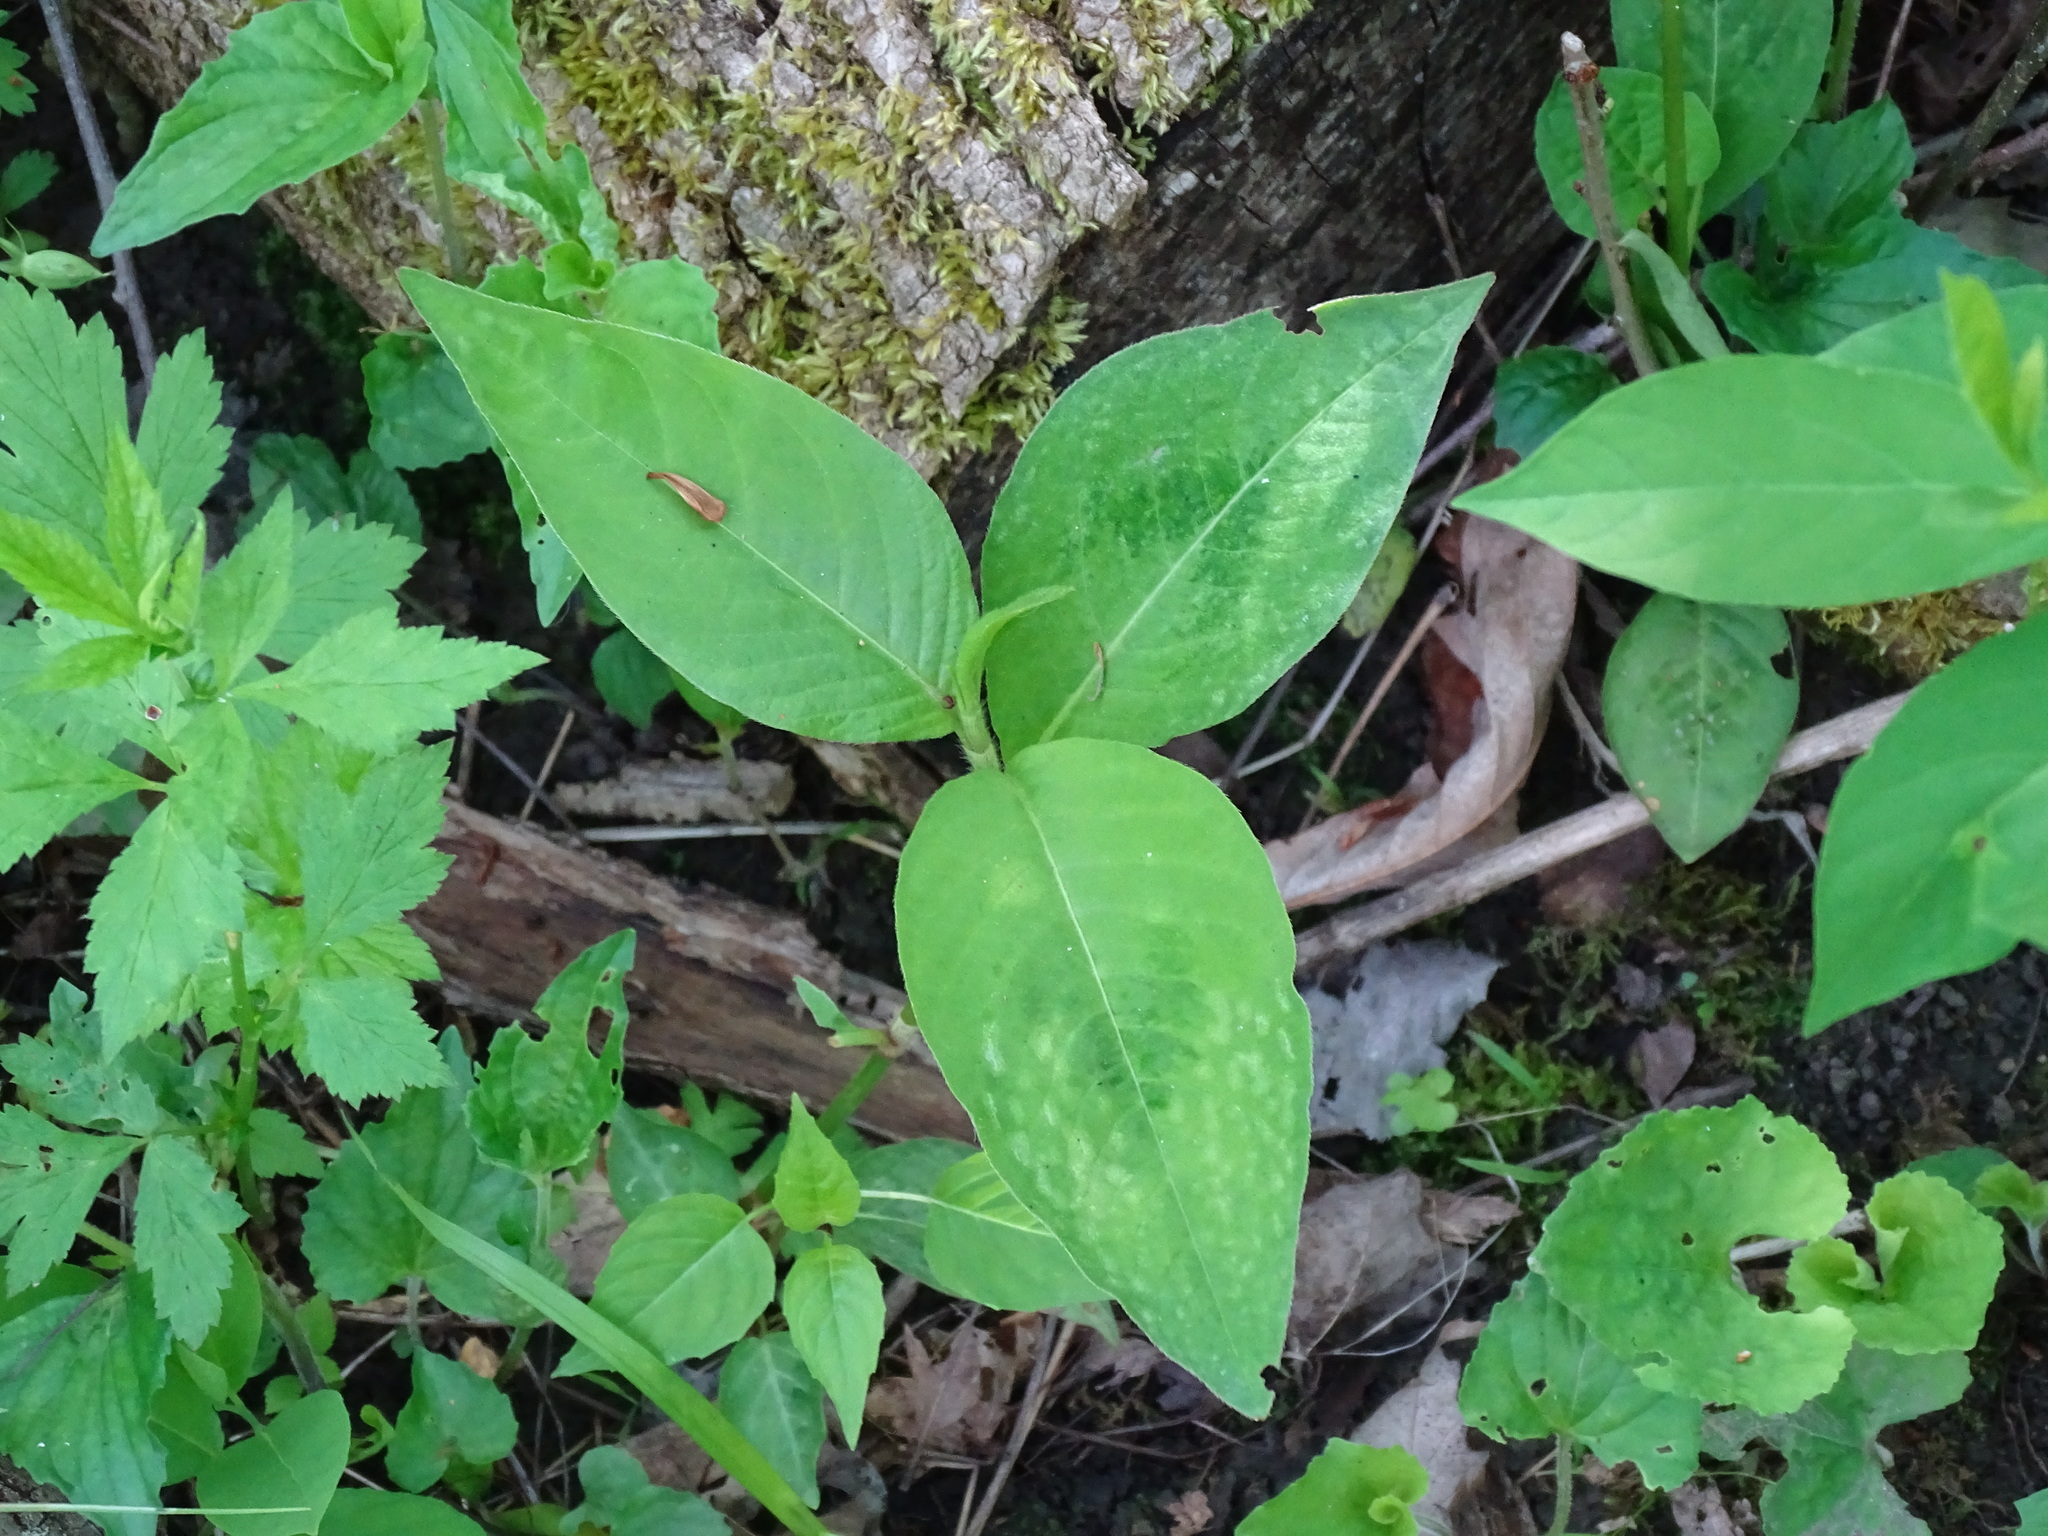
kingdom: Plantae
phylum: Tracheophyta
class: Magnoliopsida
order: Caryophyllales
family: Polygonaceae
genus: Persicaria
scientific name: Persicaria virginiana
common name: Jumpseed
